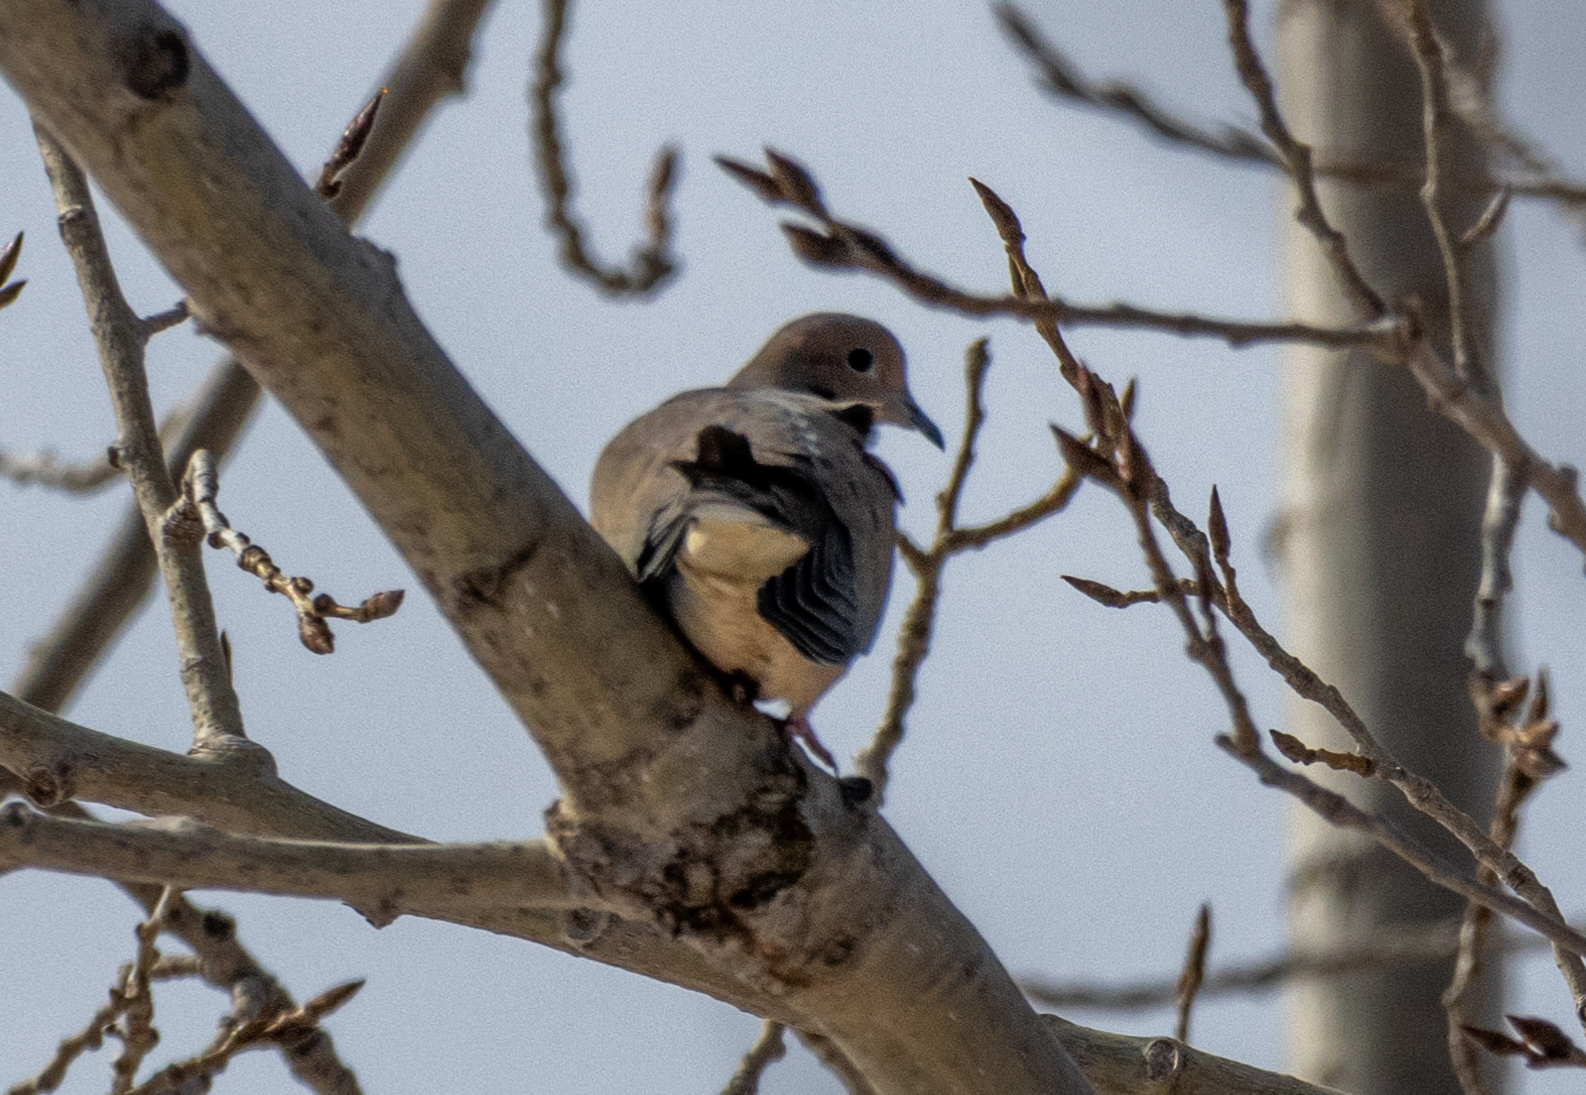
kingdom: Animalia
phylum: Chordata
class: Aves
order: Columbiformes
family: Columbidae
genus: Zenaida
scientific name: Zenaida macroura
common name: Mourning dove
